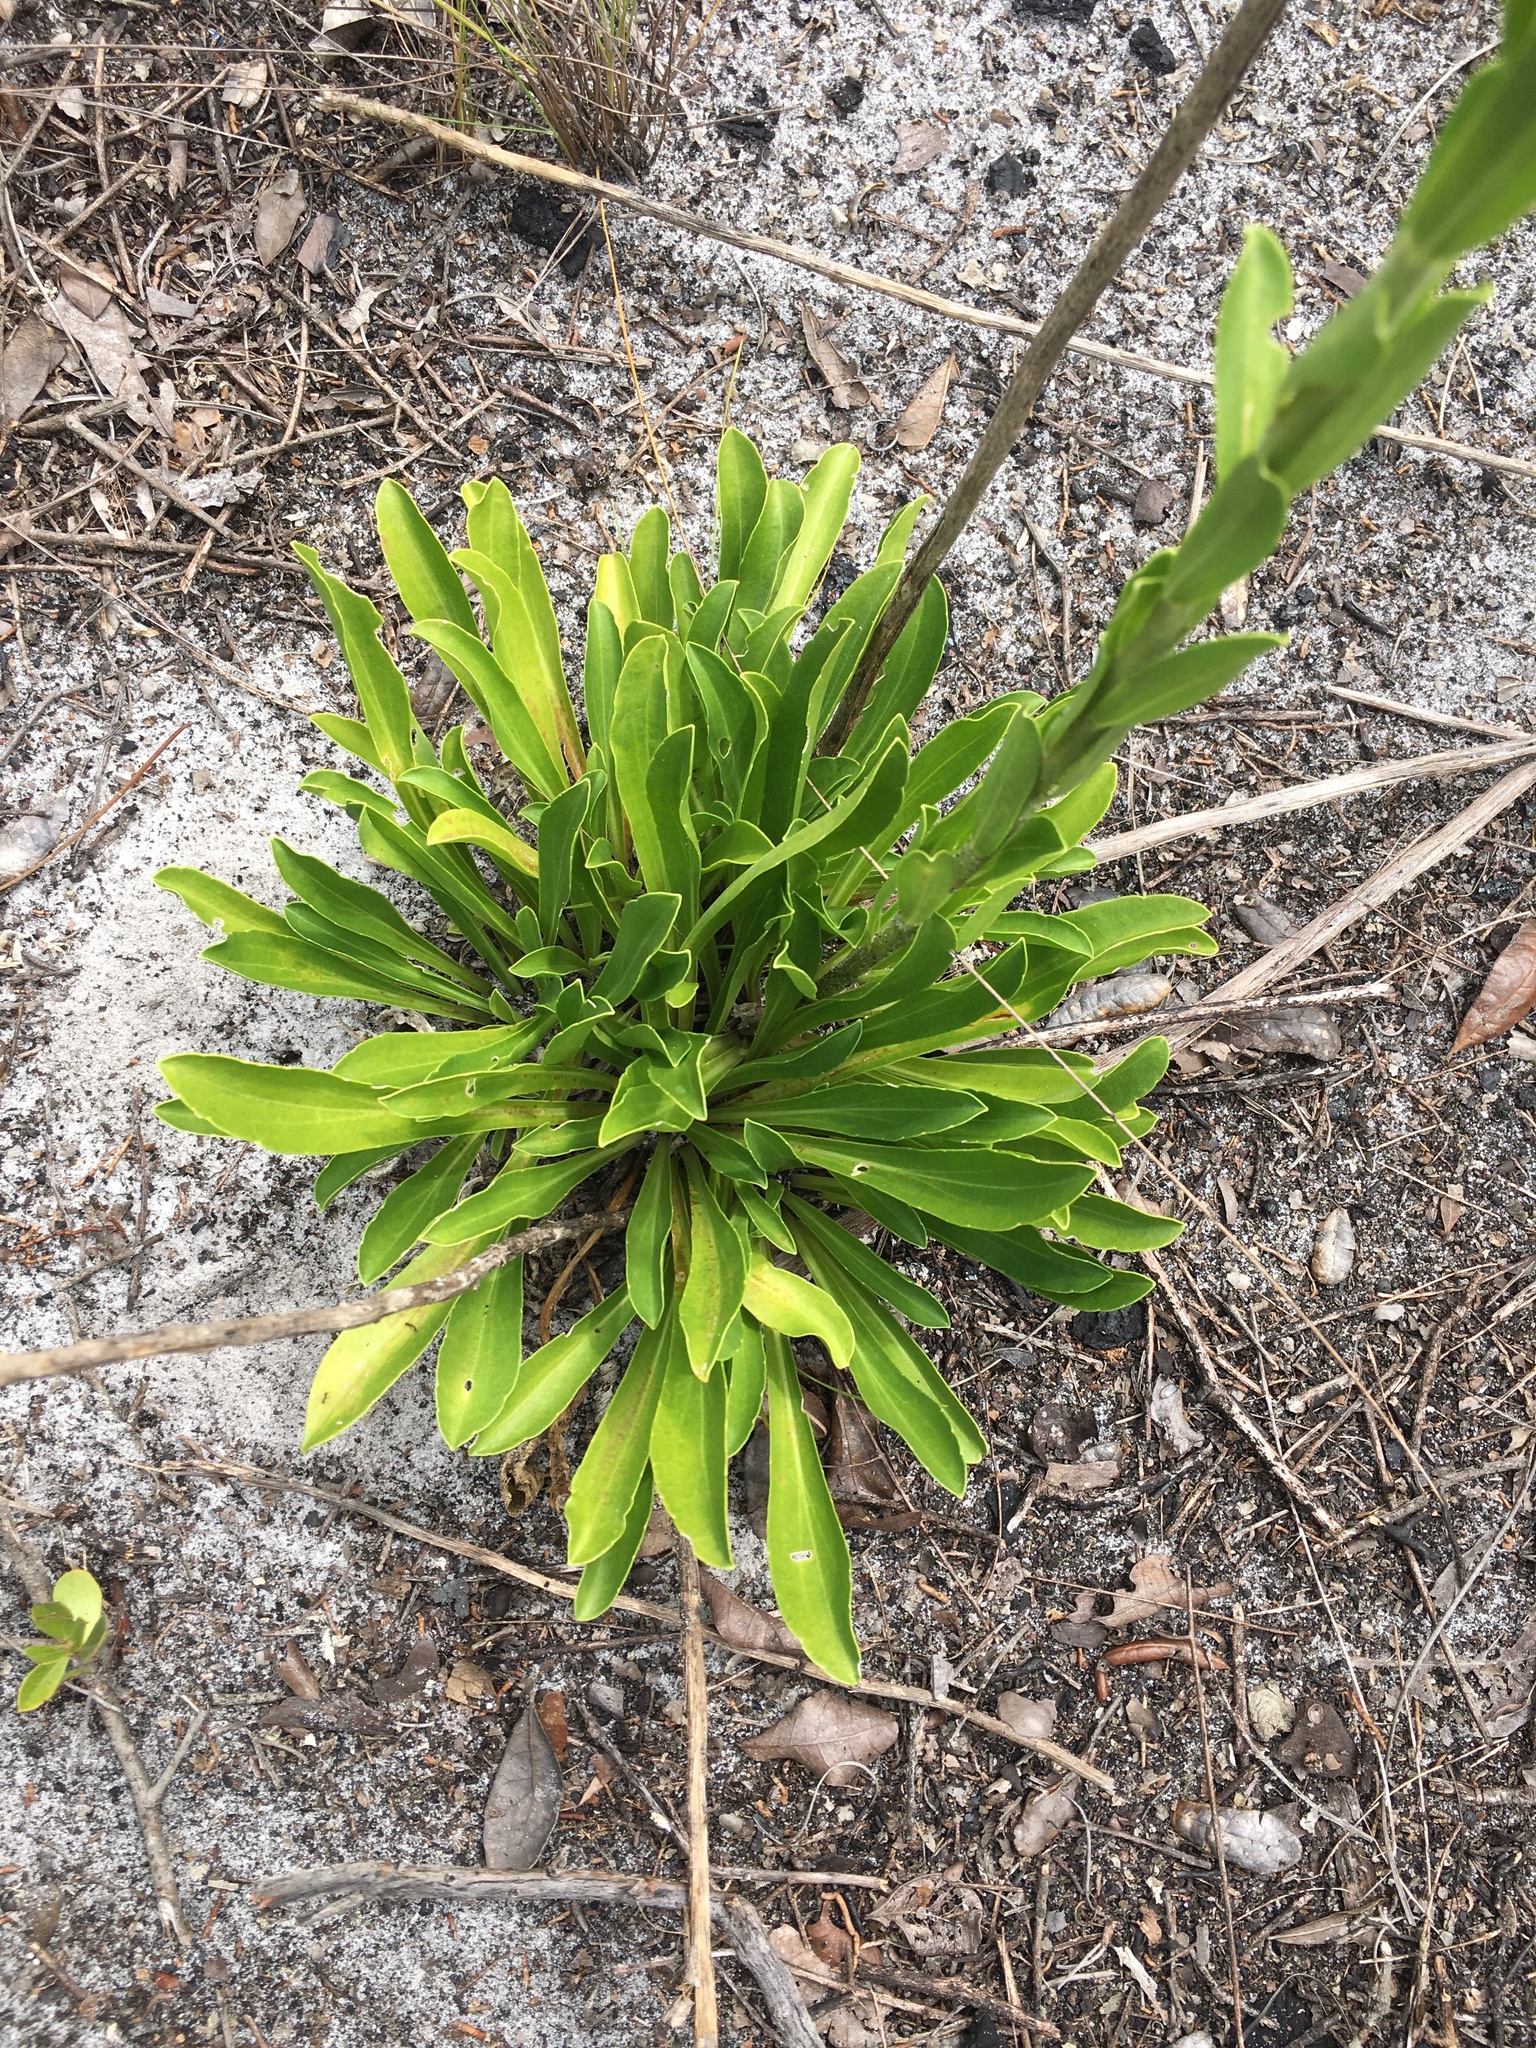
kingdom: Plantae
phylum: Tracheophyta
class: Magnoliopsida
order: Asterales
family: Asteraceae
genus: Carphephorus
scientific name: Carphephorus corymbosus
